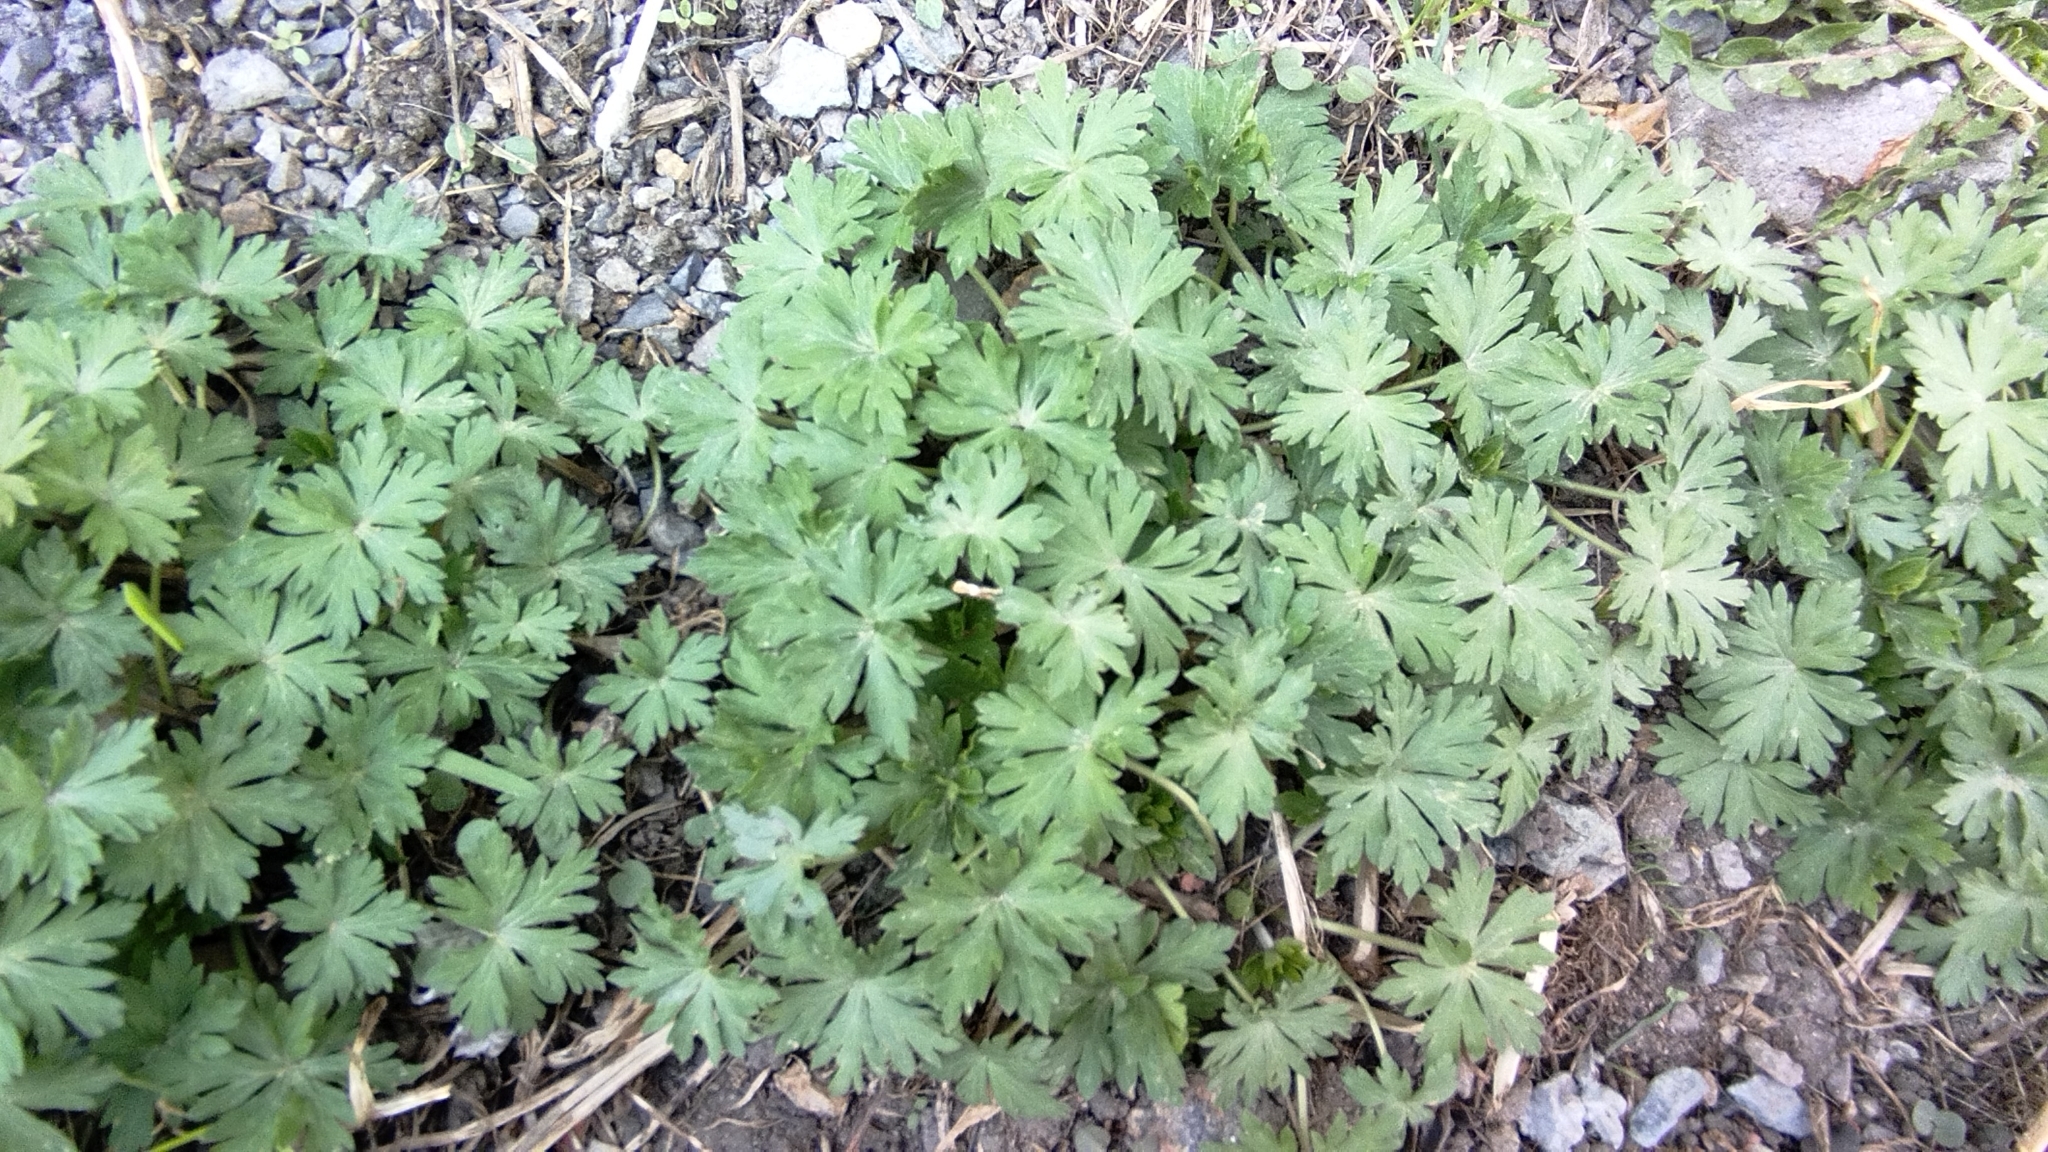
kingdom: Plantae
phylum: Tracheophyta
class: Magnoliopsida
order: Geraniales
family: Geraniaceae
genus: Geranium
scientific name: Geranium sibiricum
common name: Siberian crane's-bill
